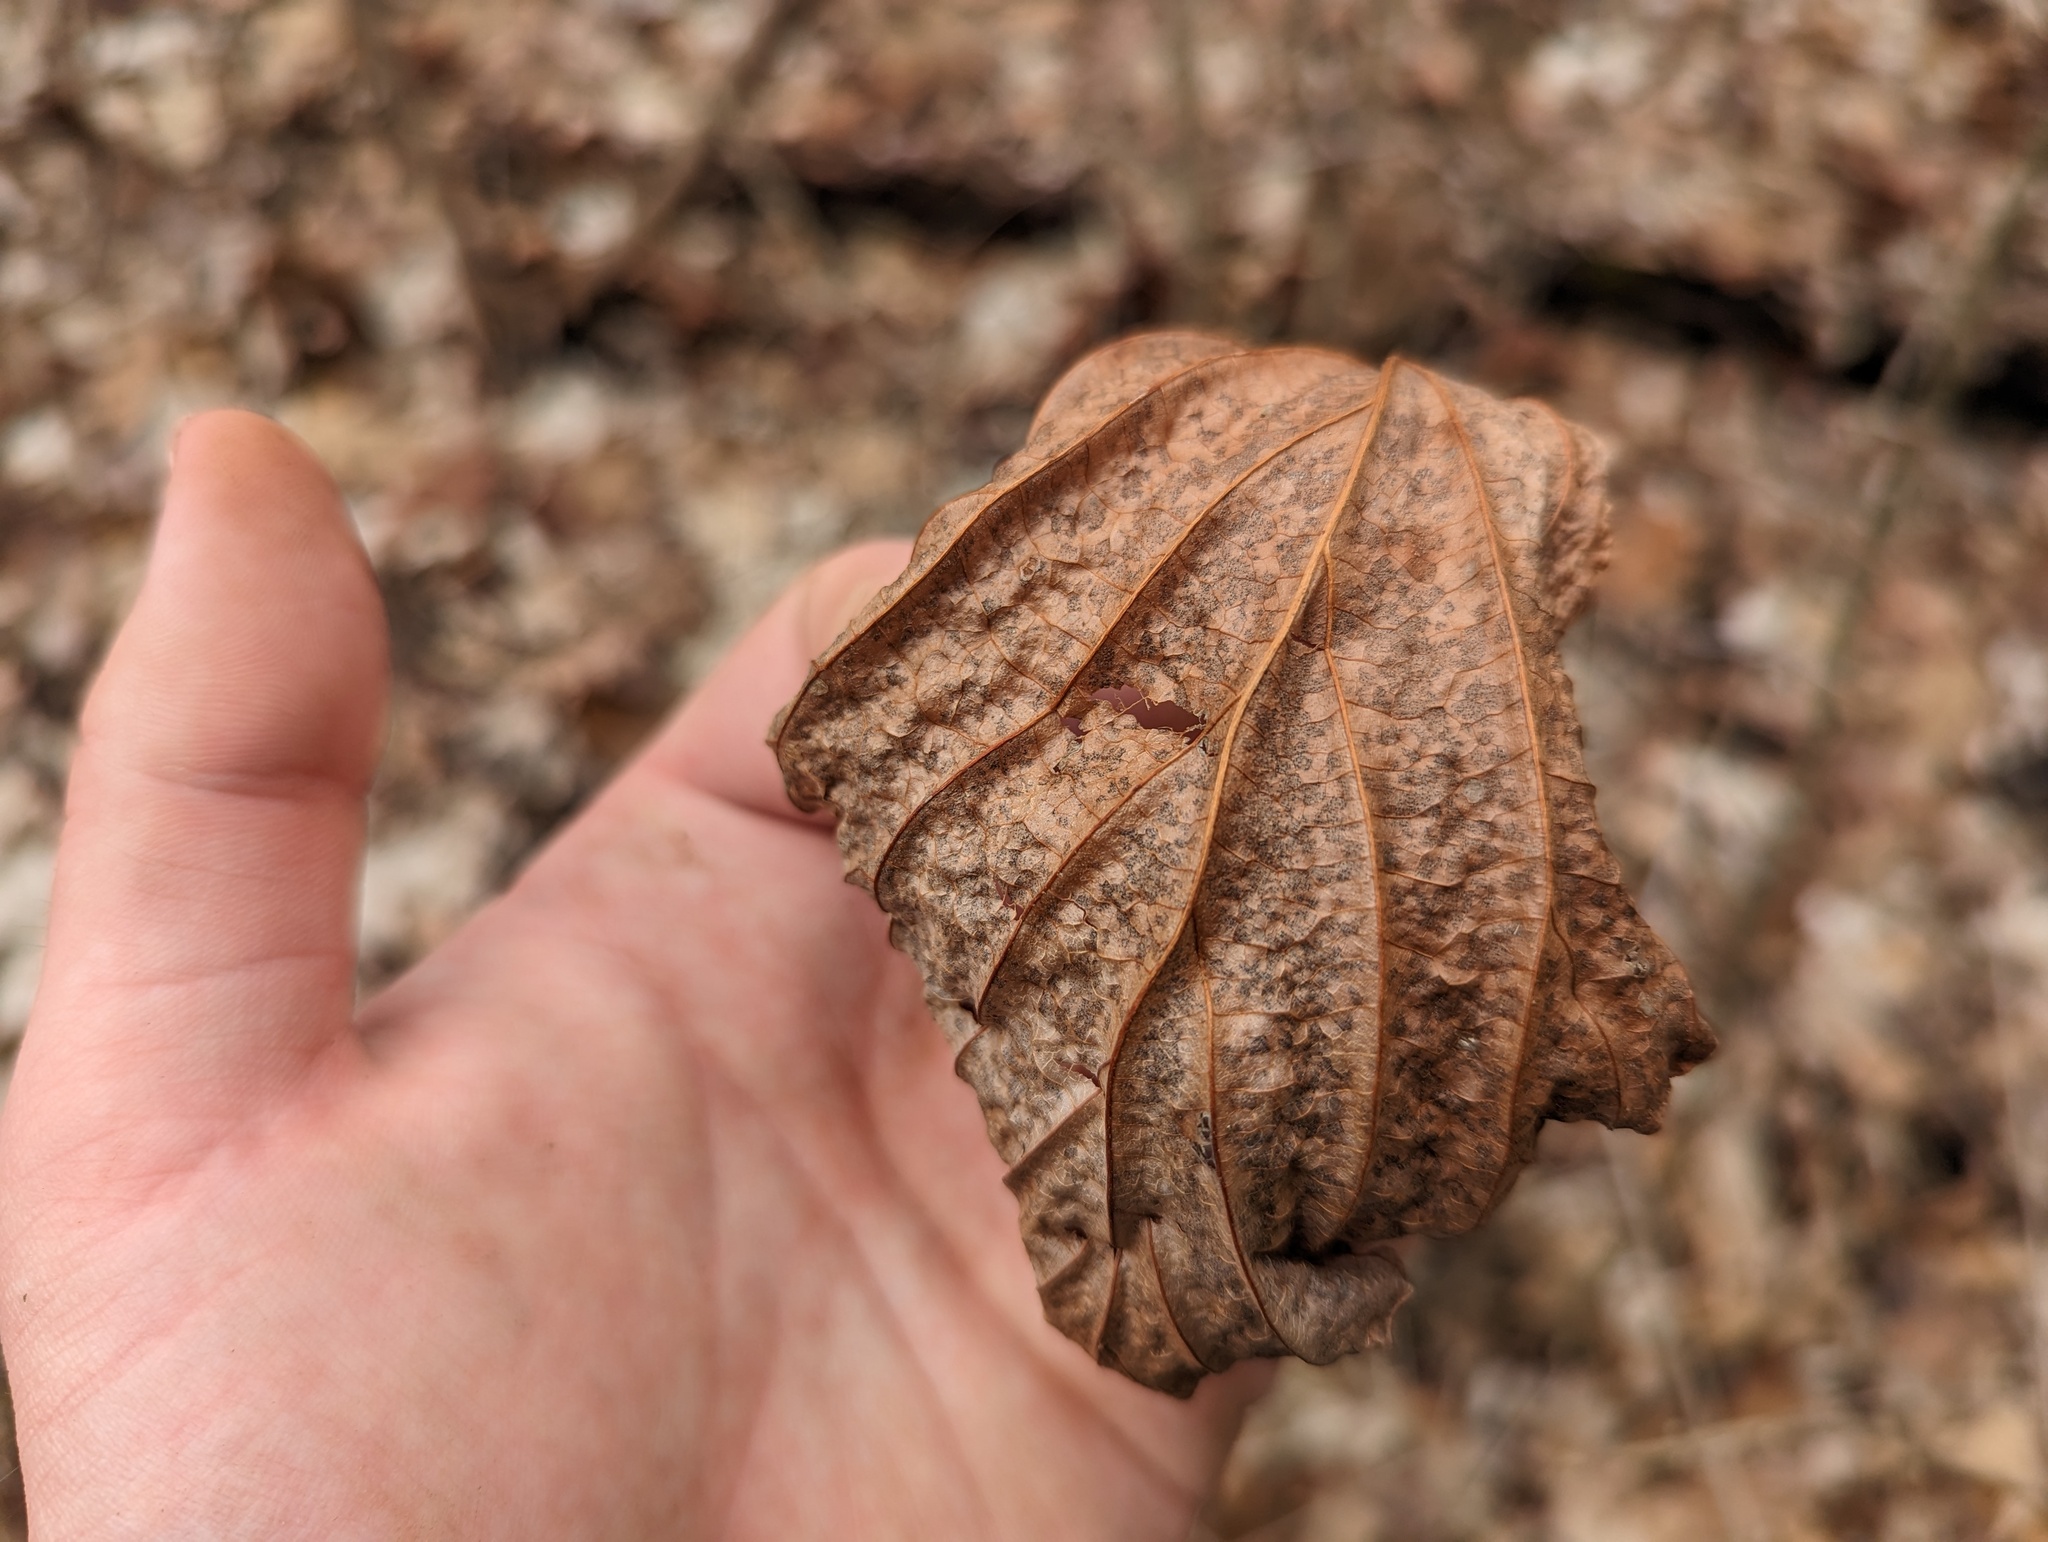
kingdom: Plantae
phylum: Tracheophyta
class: Magnoliopsida
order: Saxifragales
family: Hamamelidaceae
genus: Hamamelis
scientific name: Hamamelis virginiana
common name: Witch-hazel
